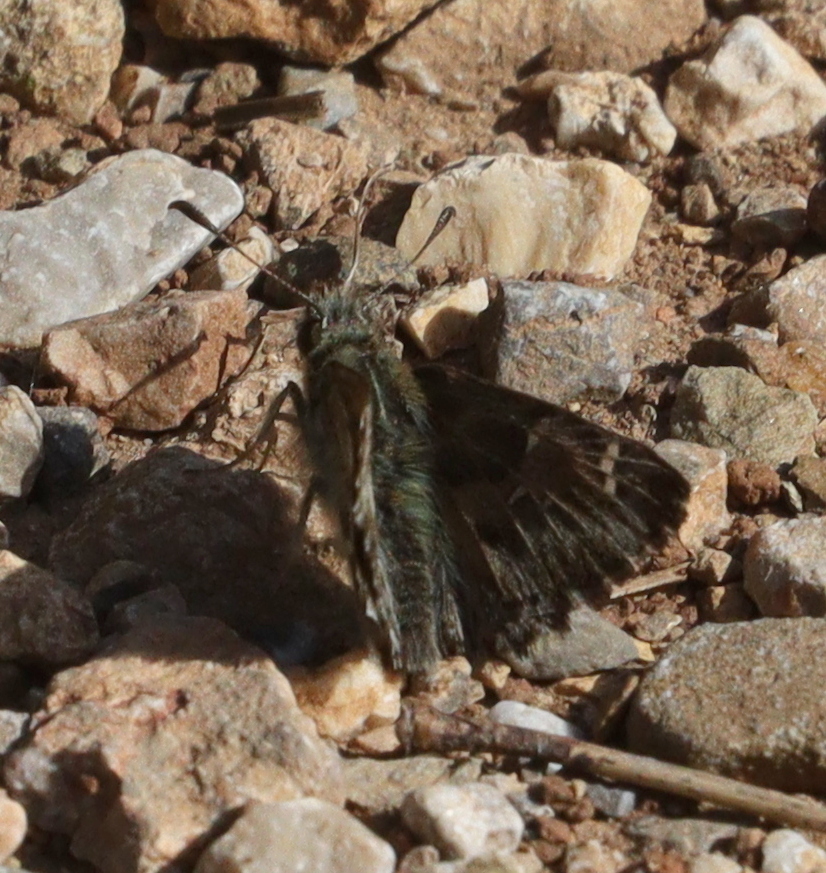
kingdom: Animalia
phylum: Arthropoda
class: Insecta
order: Lepidoptera
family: Hesperiidae
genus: Carcharodus
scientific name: Carcharodus alceae
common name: Mallow skipper
